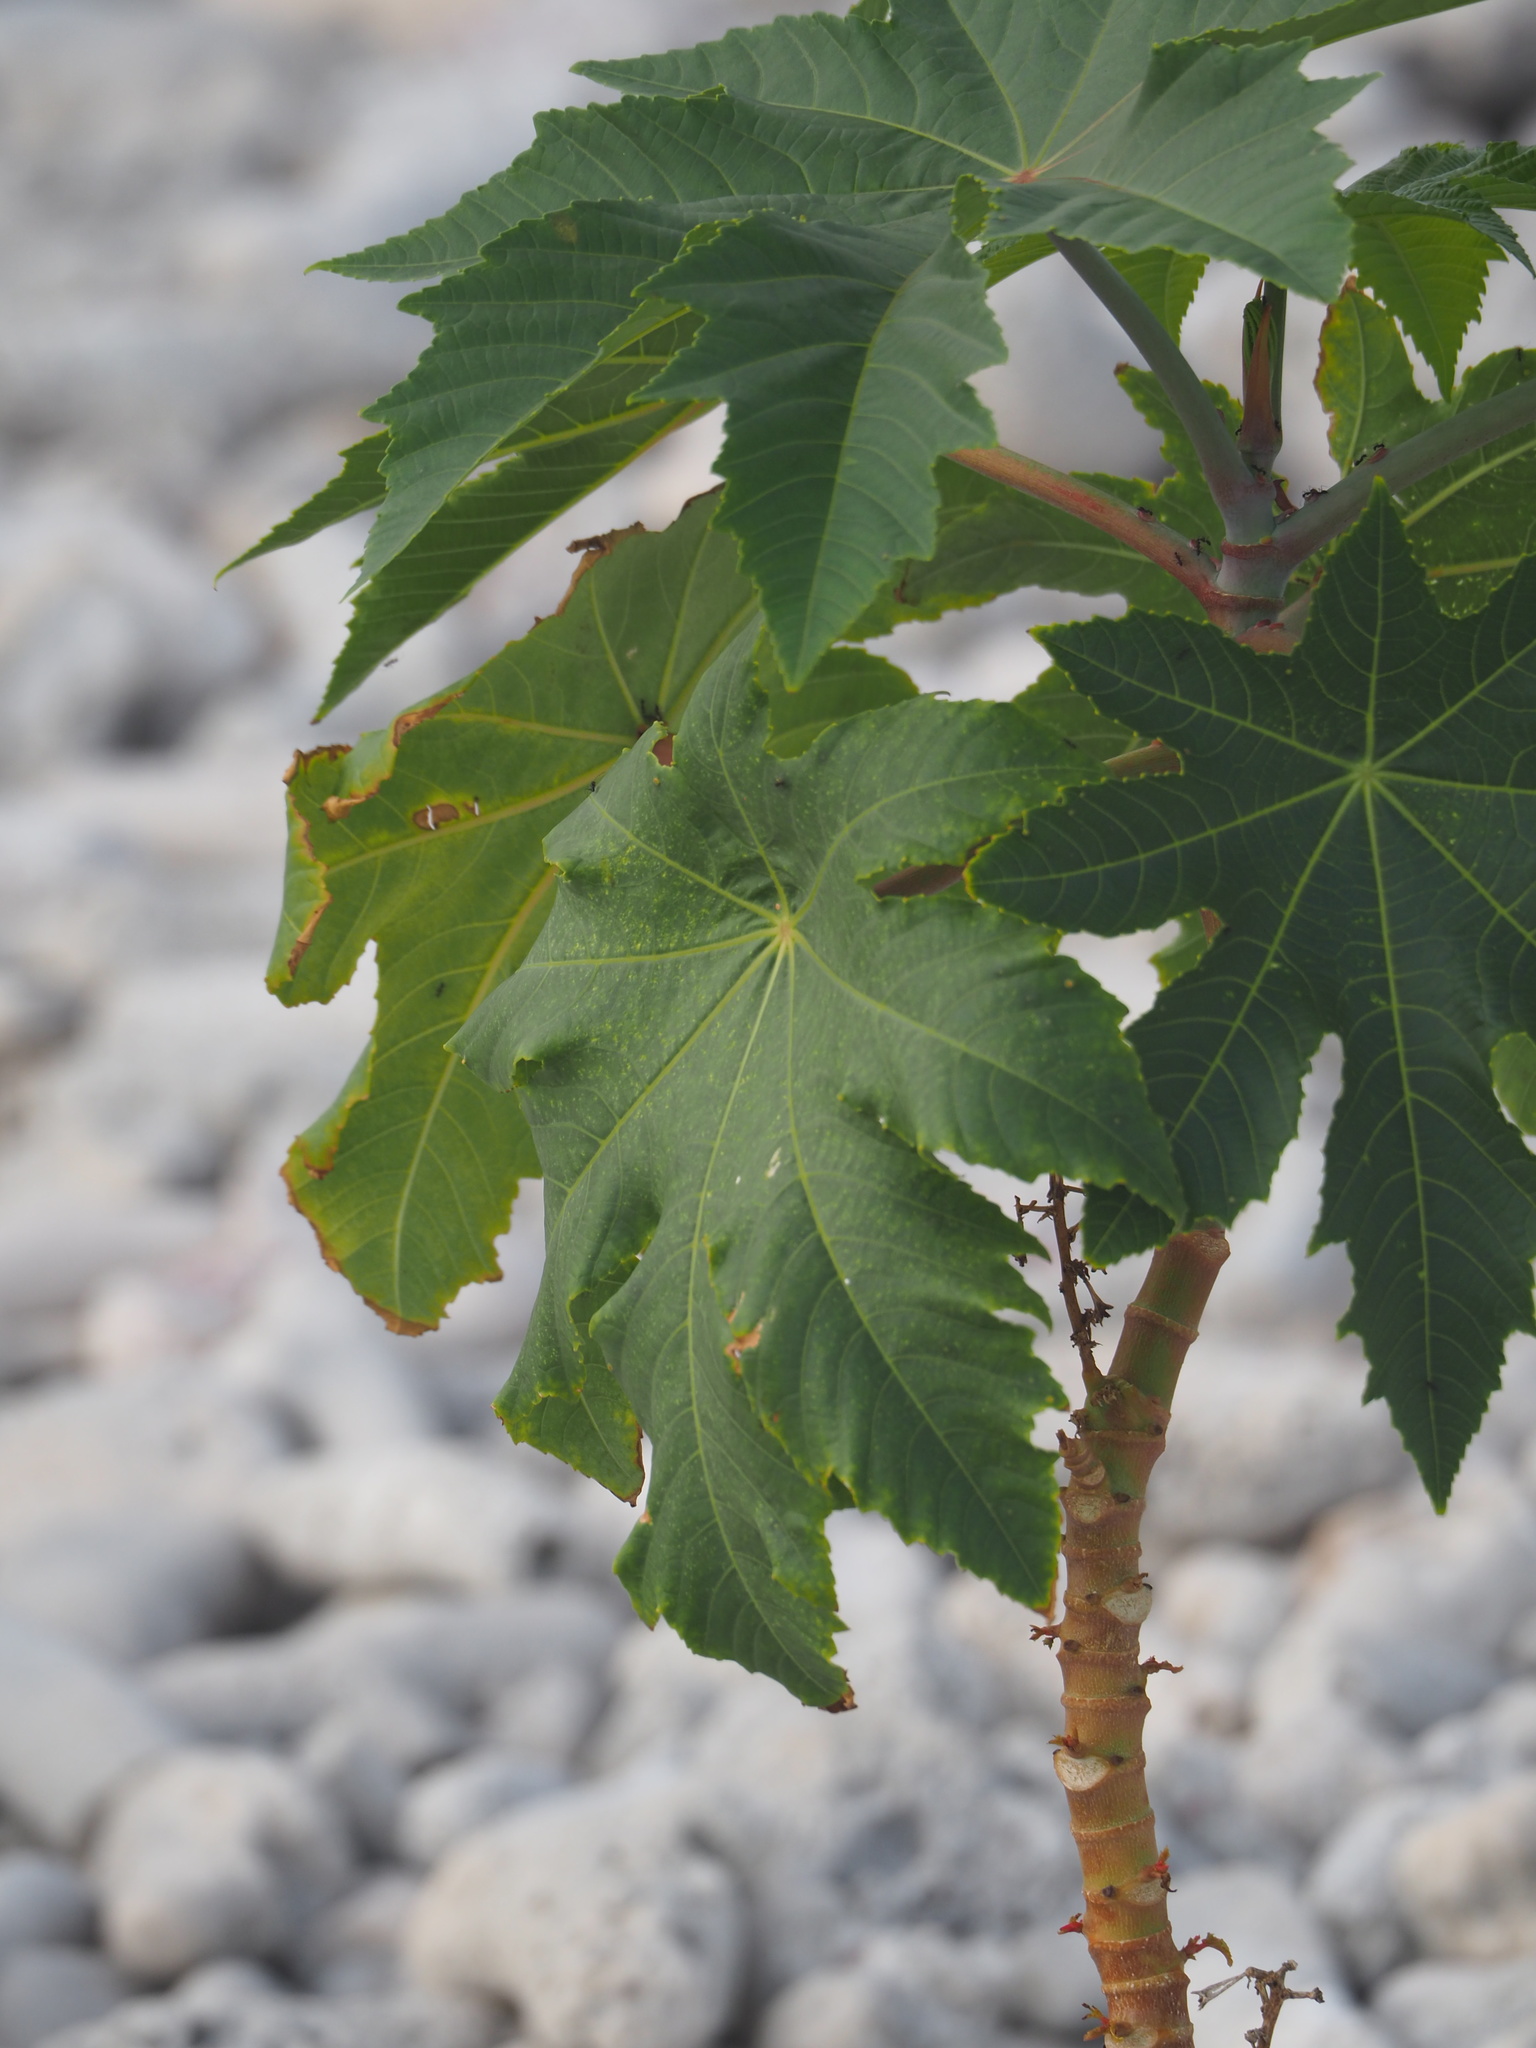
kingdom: Plantae
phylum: Tracheophyta
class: Magnoliopsida
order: Malpighiales
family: Euphorbiaceae
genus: Ricinus
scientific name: Ricinus communis
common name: Castor-oil-plant
